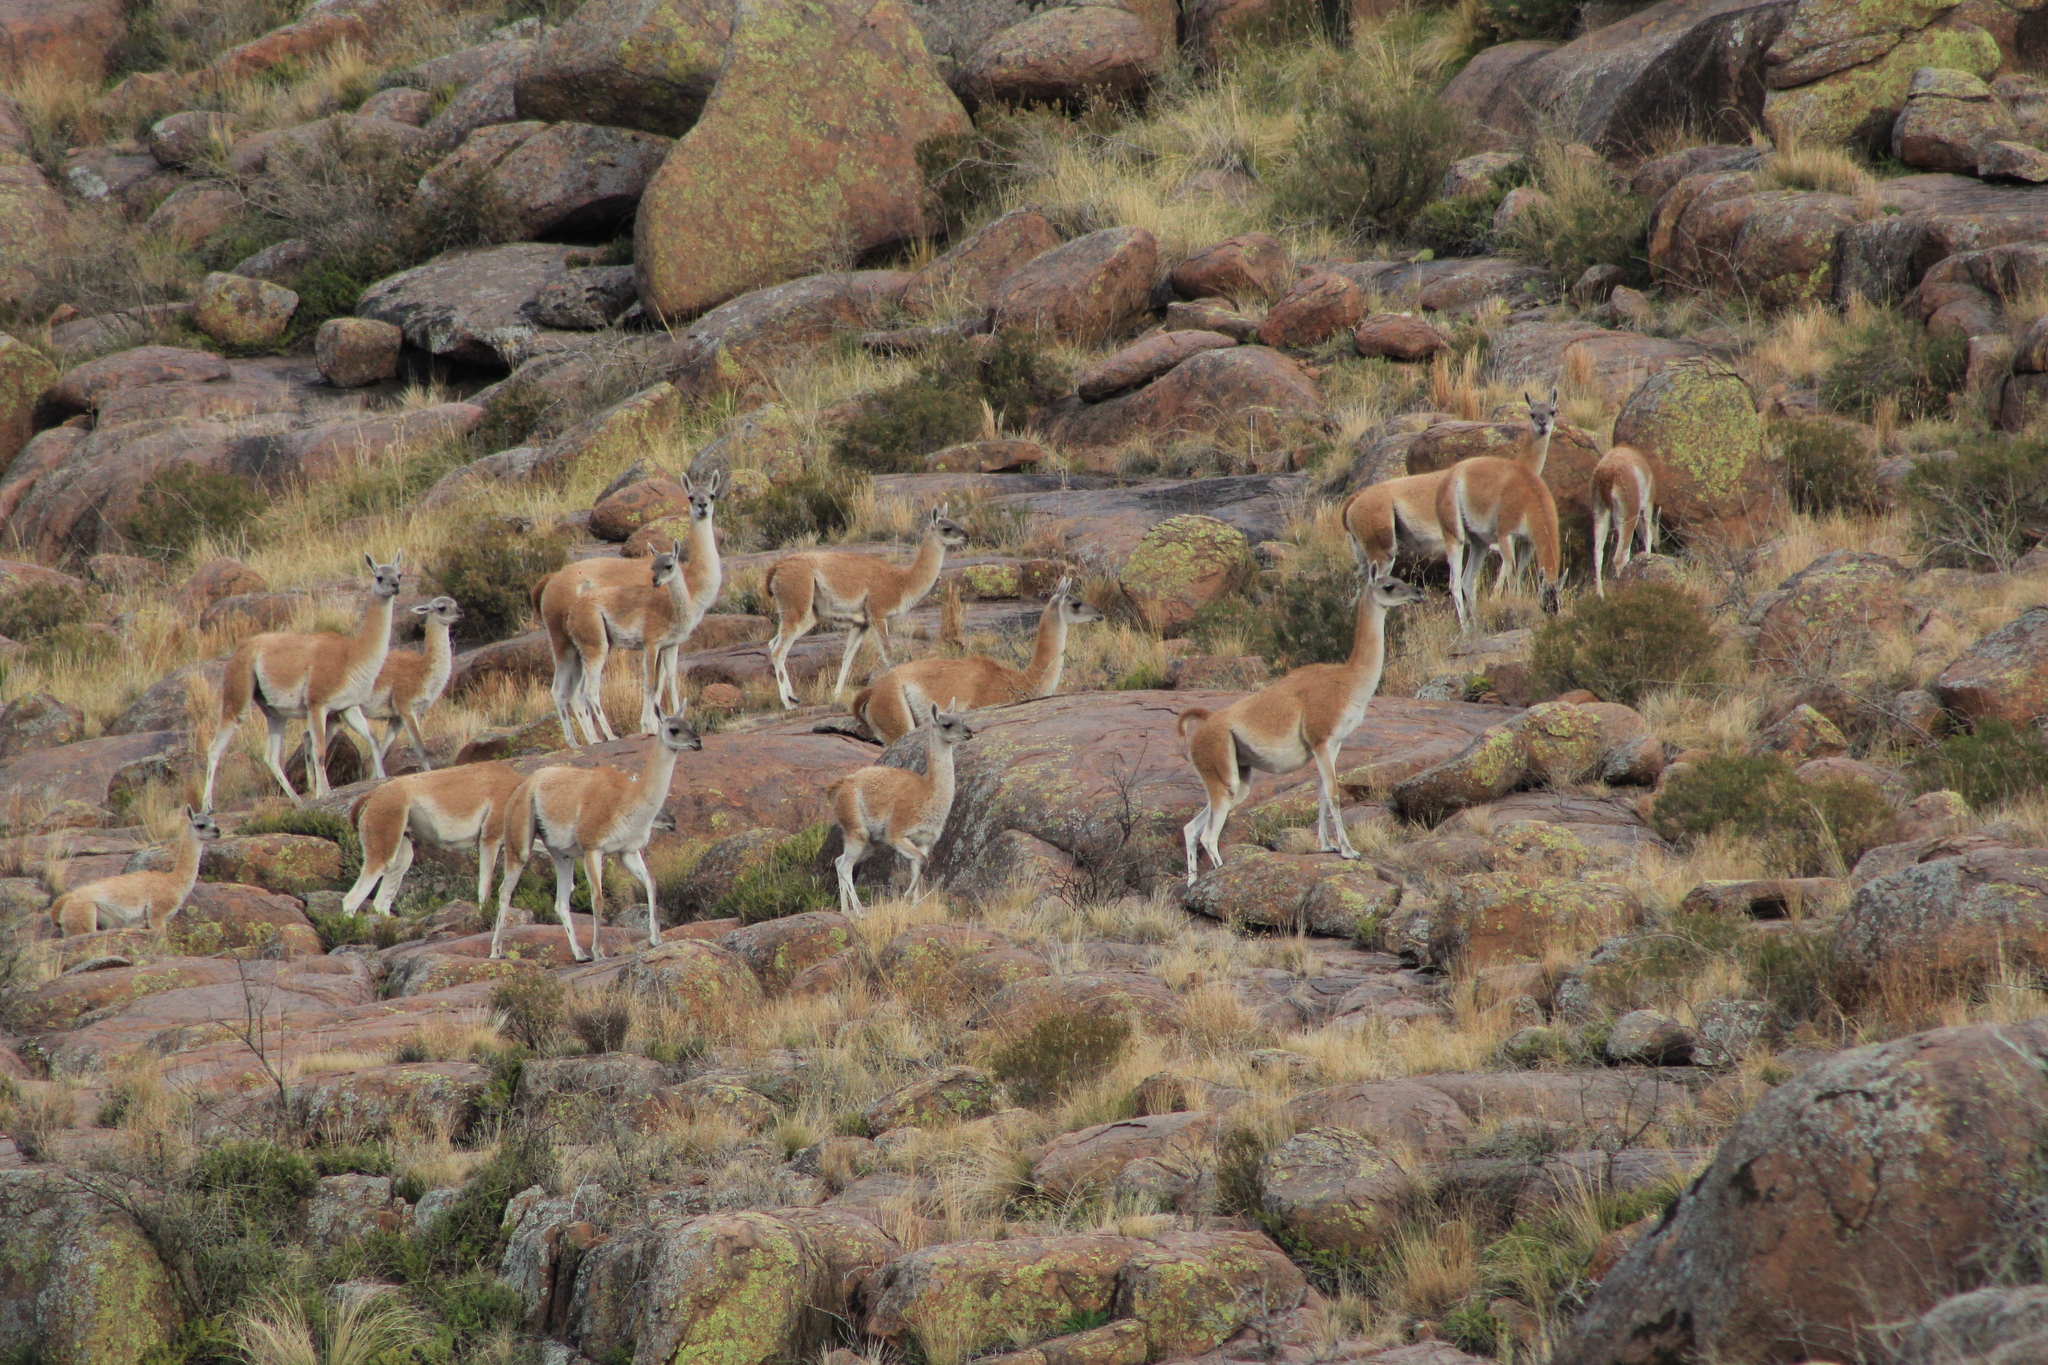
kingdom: Animalia
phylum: Chordata
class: Mammalia
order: Artiodactyla
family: Camelidae
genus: Lama
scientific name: Lama glama
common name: Llama
